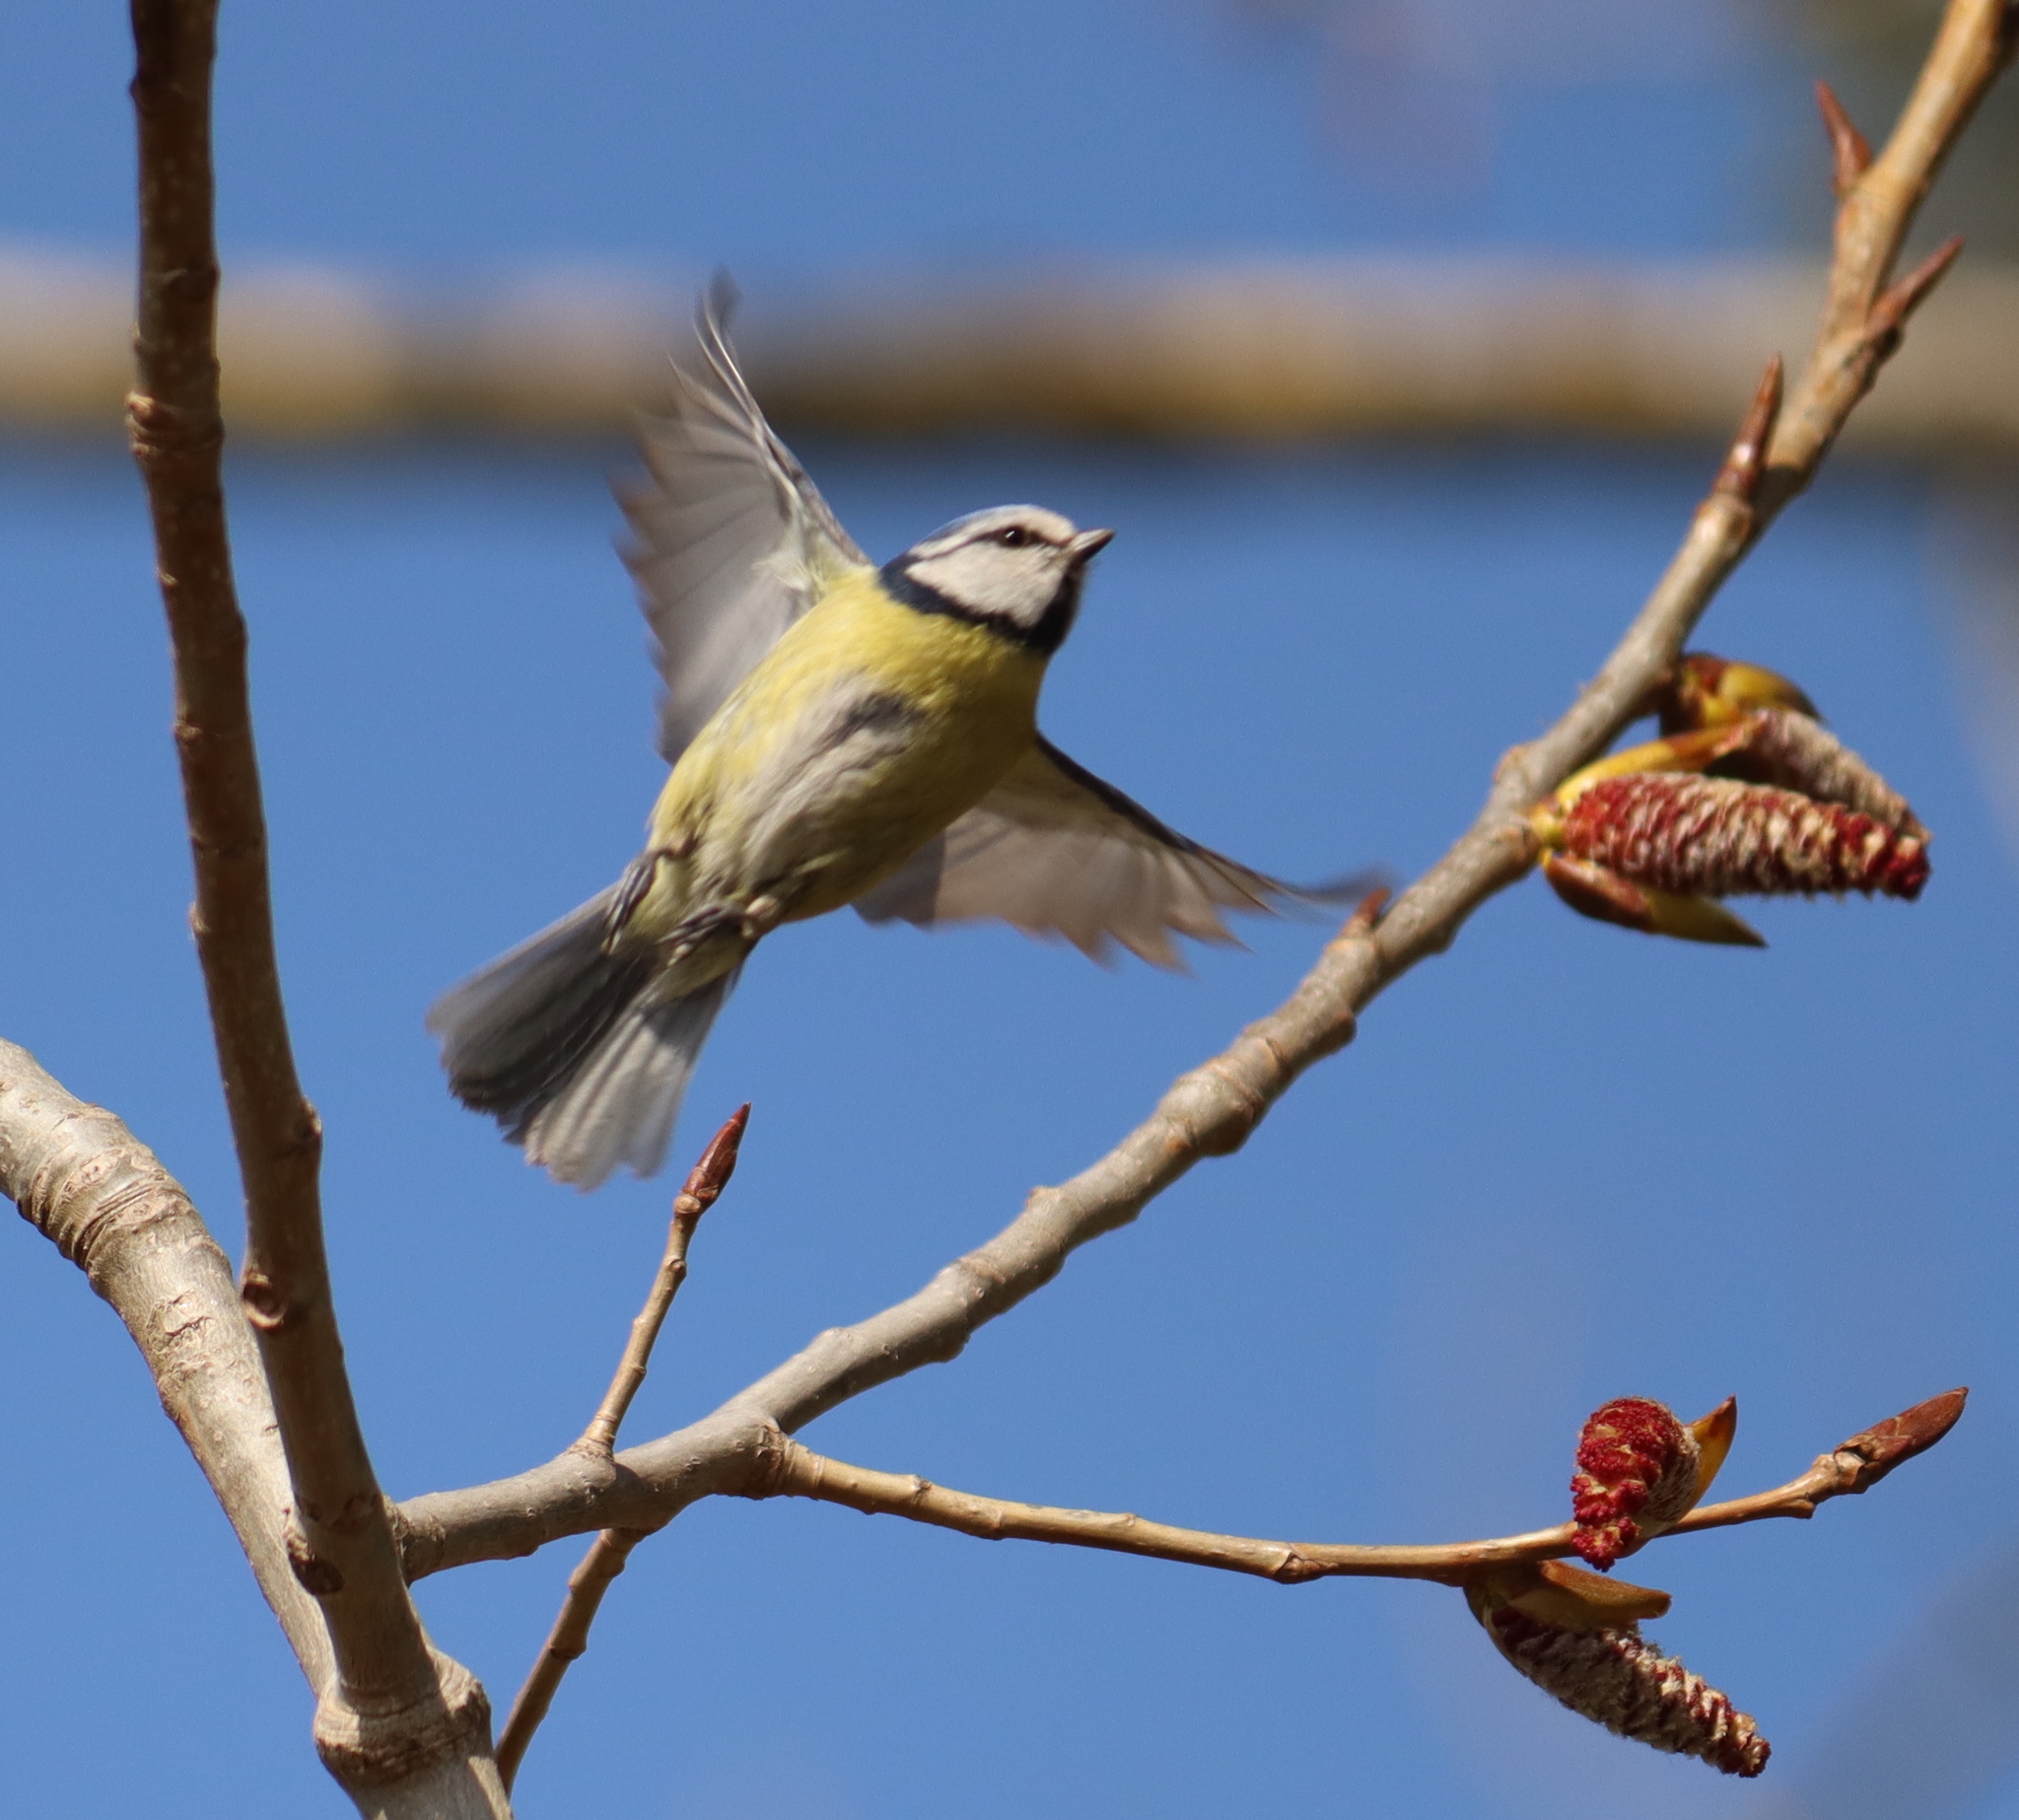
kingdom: Animalia
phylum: Chordata
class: Aves
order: Passeriformes
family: Paridae
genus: Cyanistes
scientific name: Cyanistes caeruleus
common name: Eurasian blue tit
